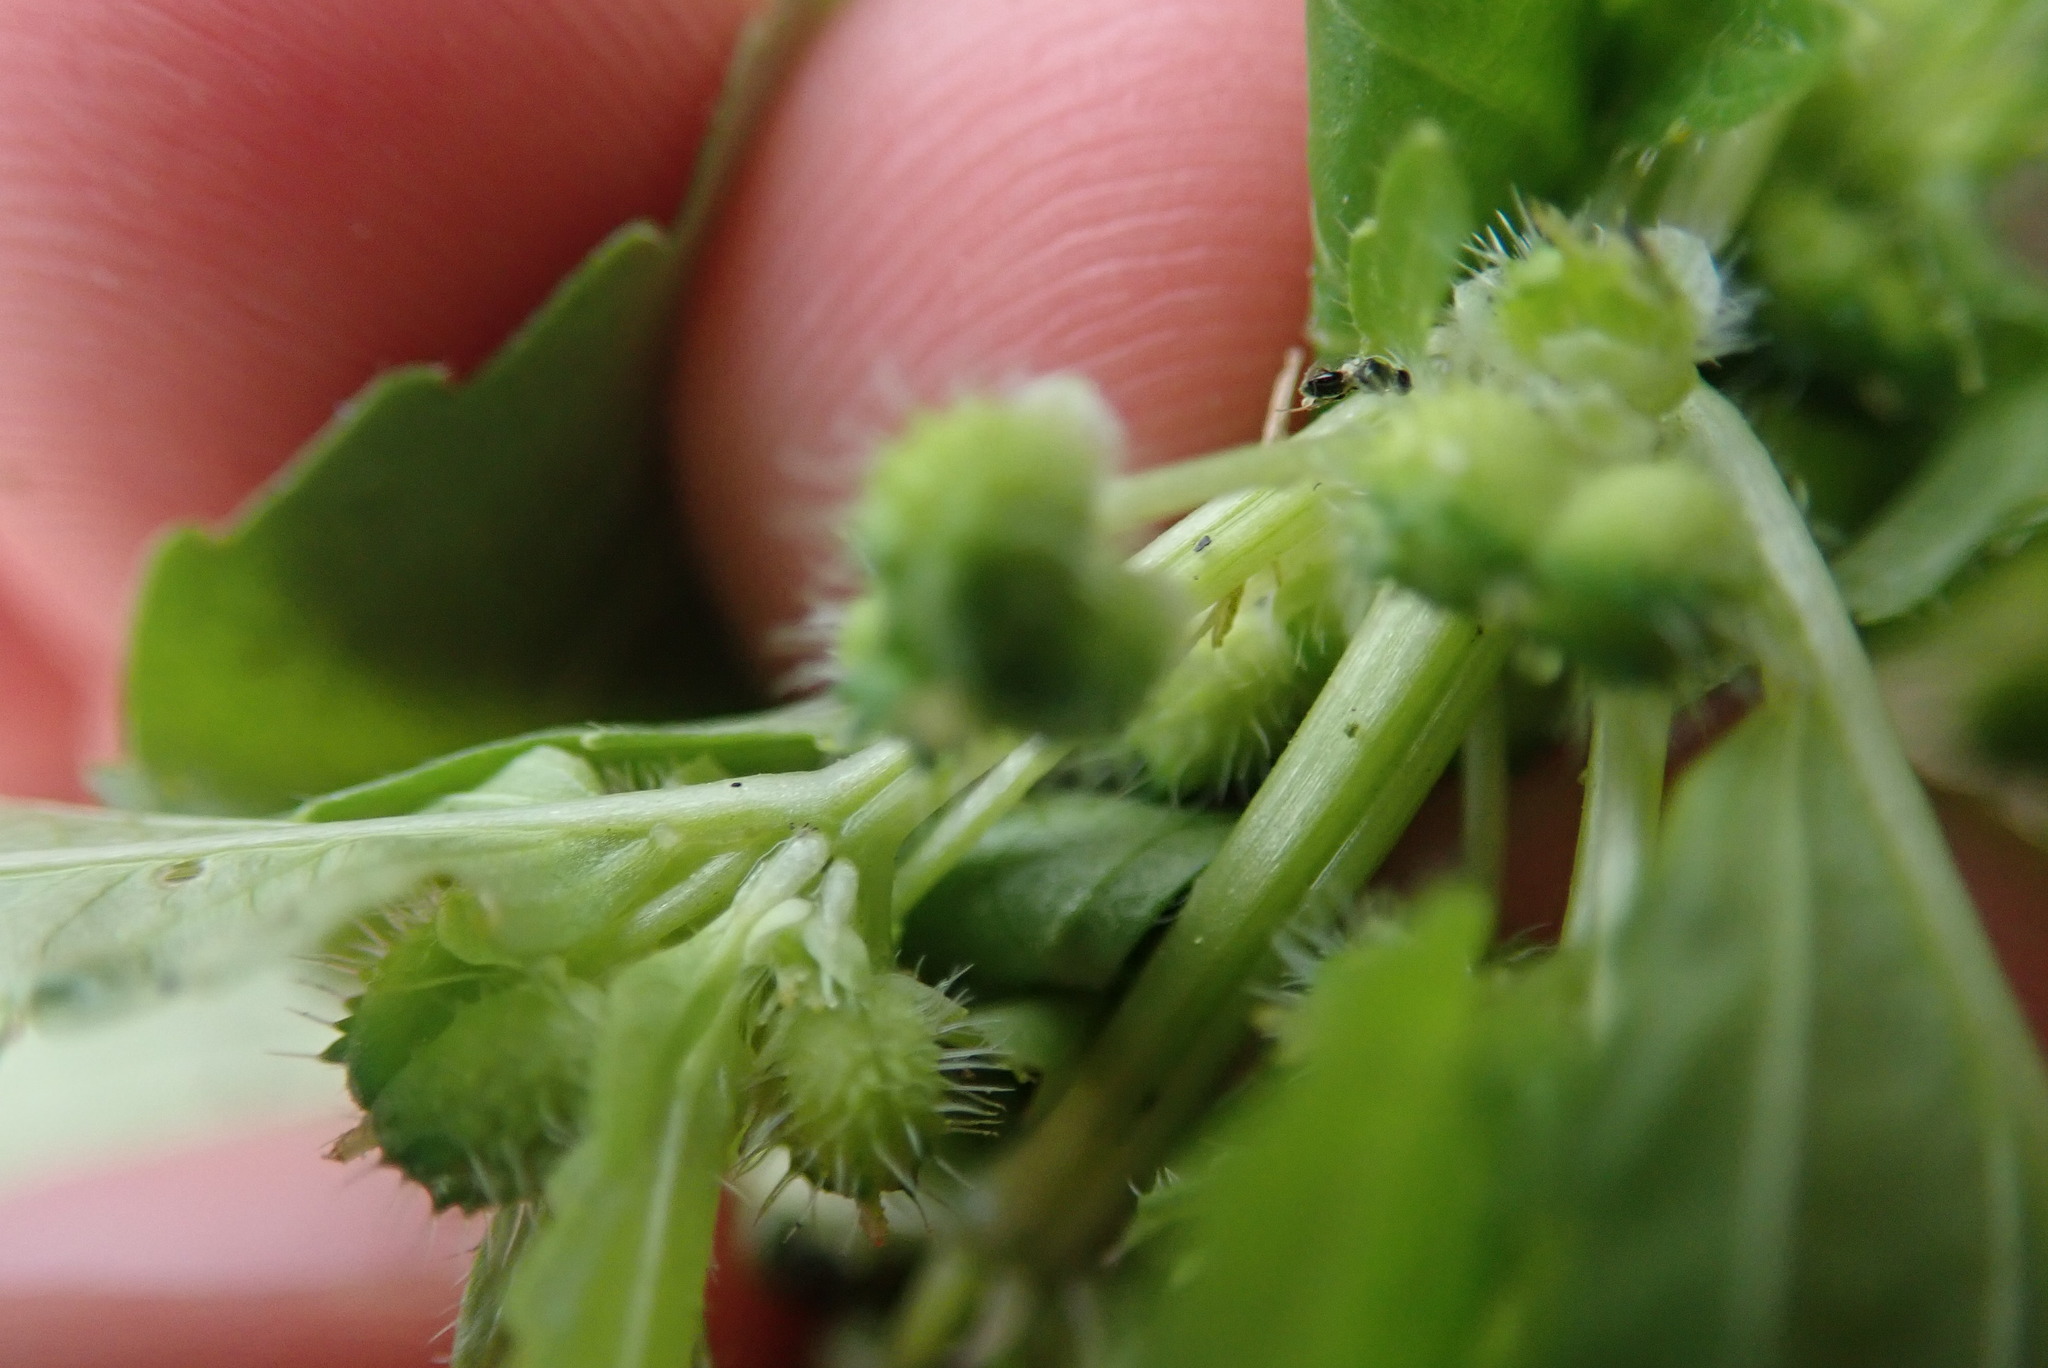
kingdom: Plantae
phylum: Tracheophyta
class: Magnoliopsida
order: Malpighiales
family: Euphorbiaceae
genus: Mercurialis
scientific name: Mercurialis annua
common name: Annual mercury
